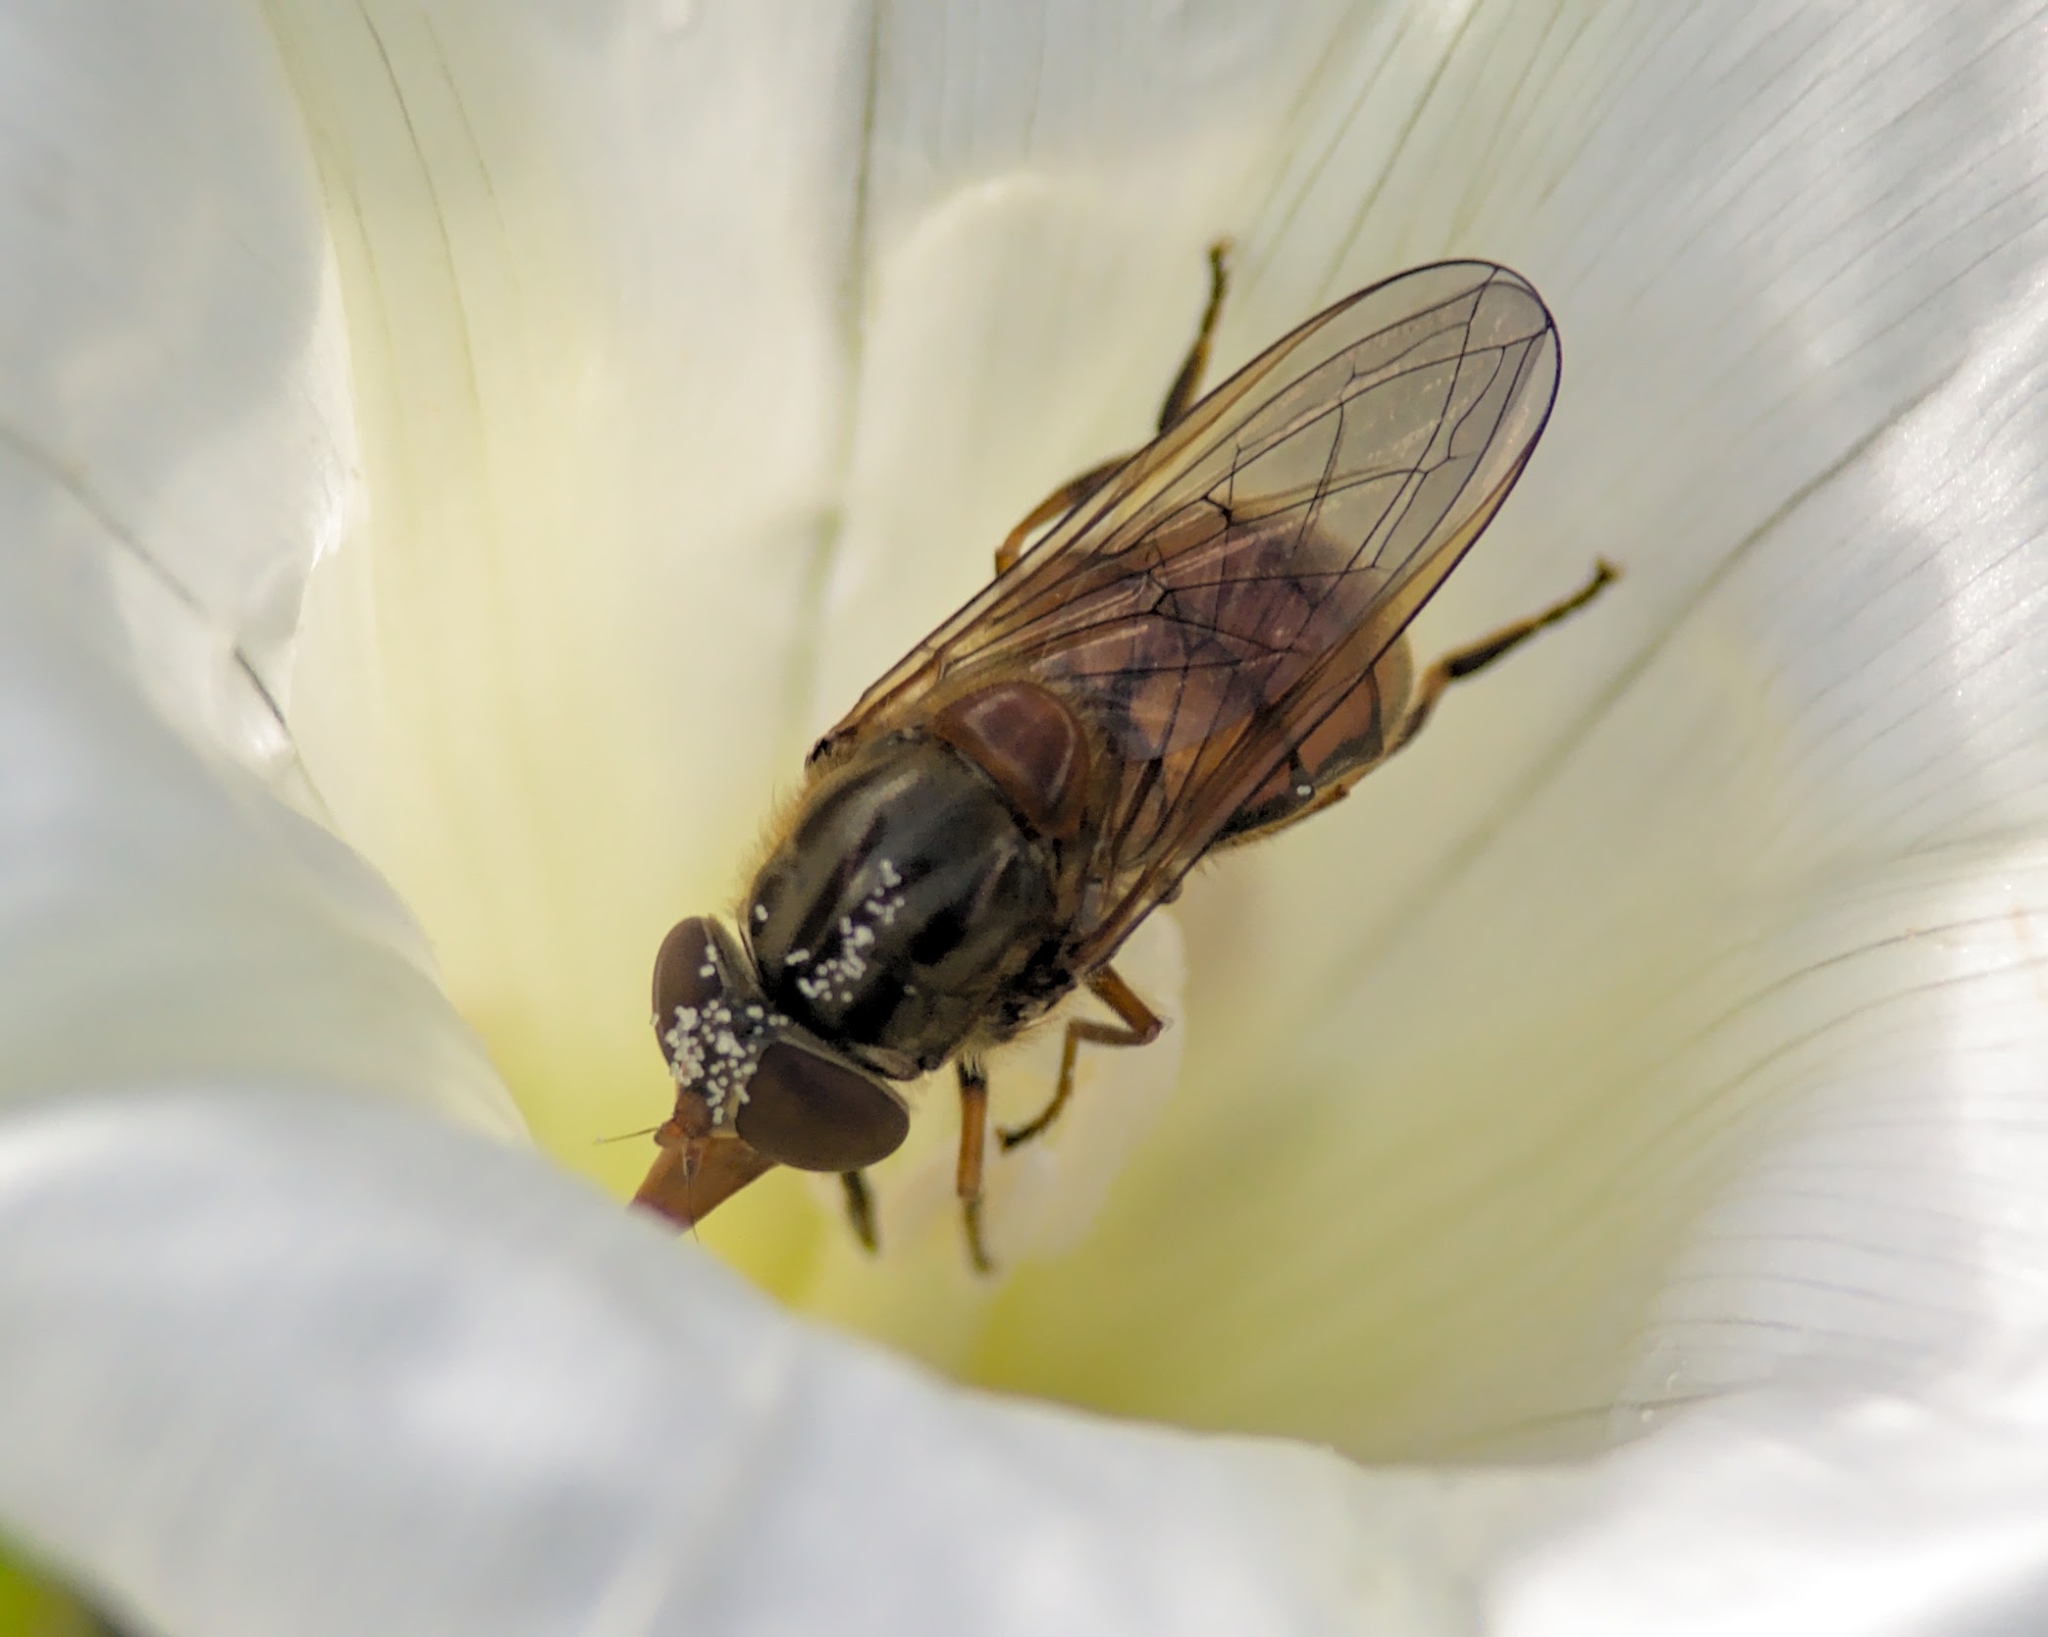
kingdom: Animalia
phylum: Arthropoda
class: Insecta
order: Diptera
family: Syrphidae
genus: Rhingia
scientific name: Rhingia campestris
